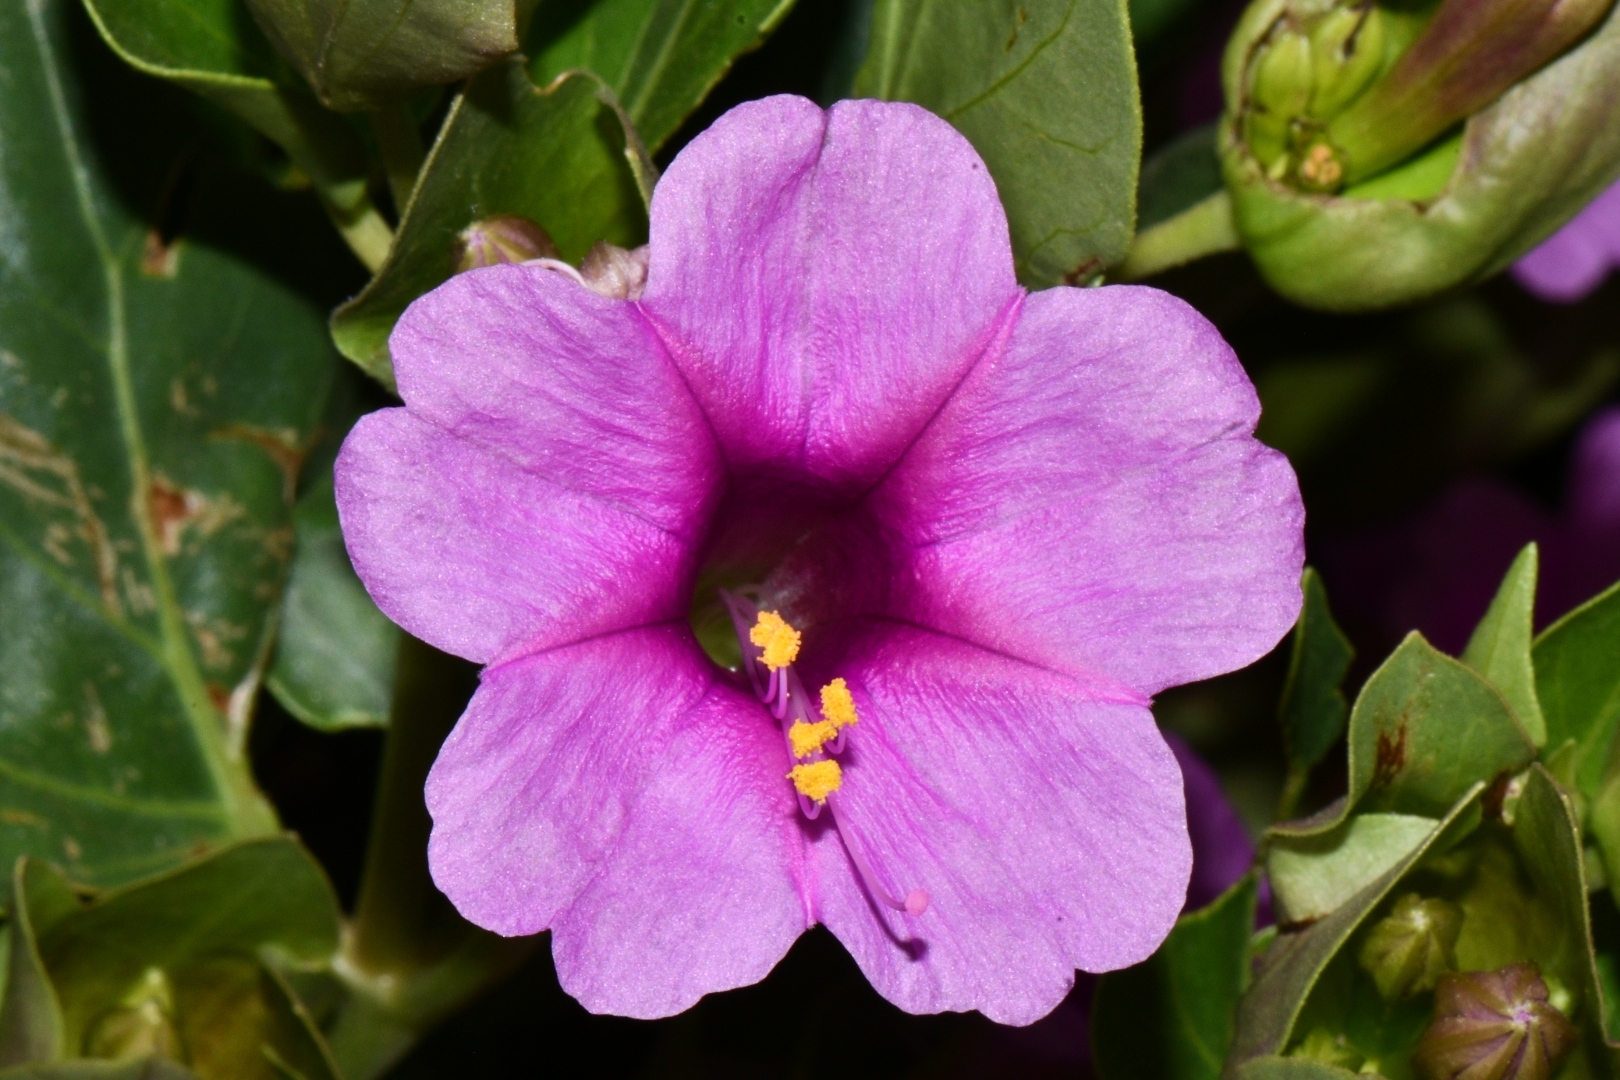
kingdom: Plantae
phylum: Tracheophyta
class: Magnoliopsida
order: Caryophyllales
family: Nyctaginaceae
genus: Mirabilis
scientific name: Mirabilis multiflora
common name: Froebel's four-o'clock
